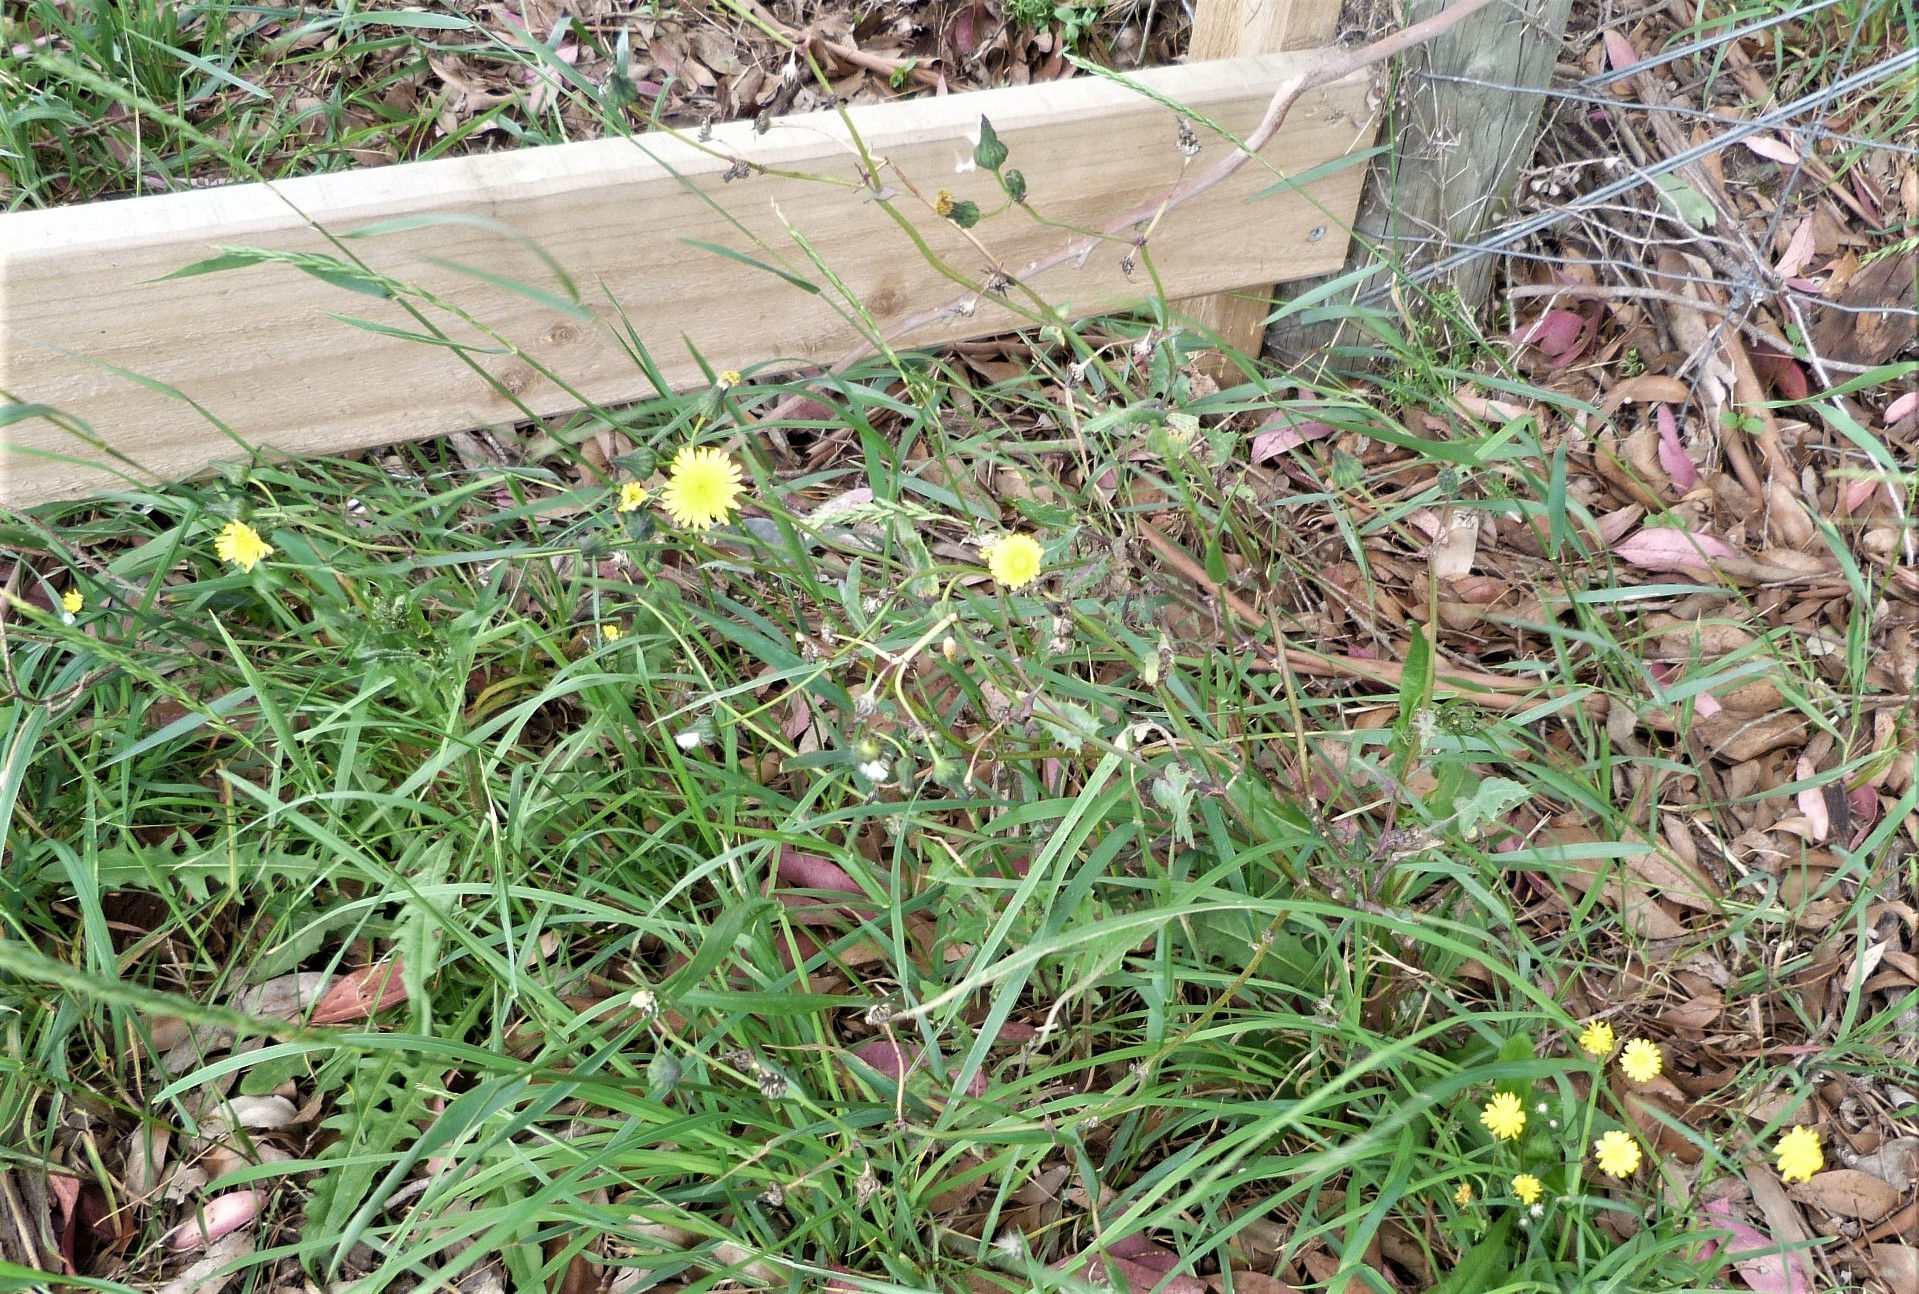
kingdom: Plantae
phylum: Tracheophyta
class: Magnoliopsida
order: Asterales
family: Asteraceae
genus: Crepis
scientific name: Crepis capillaris
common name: Smooth hawksbeard
